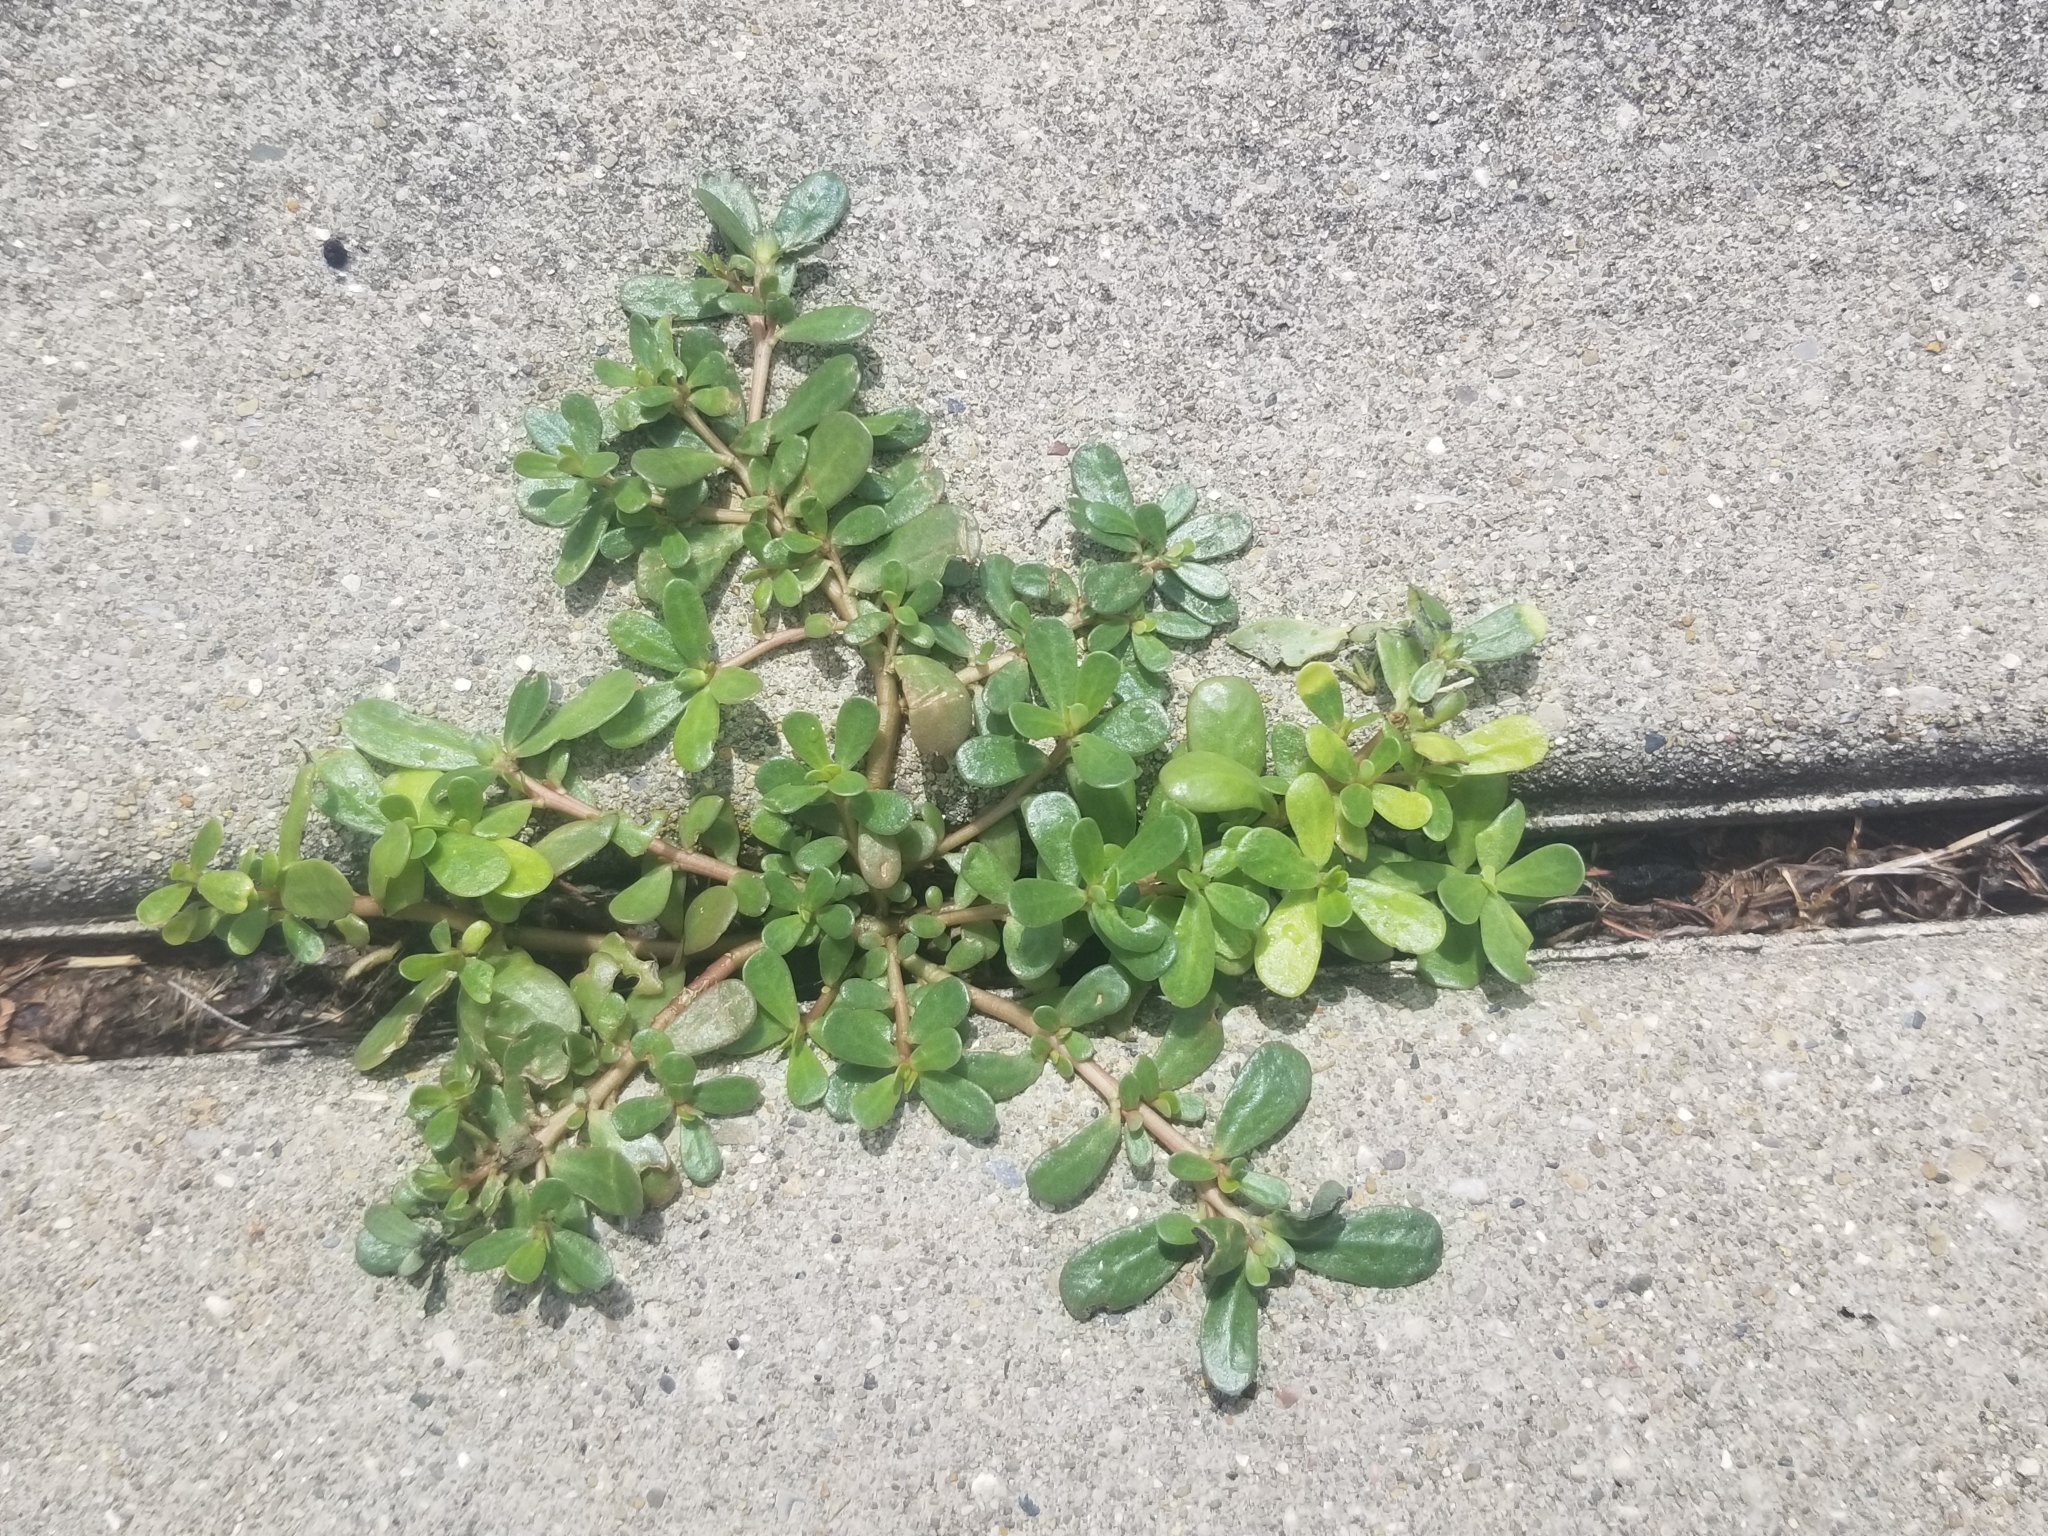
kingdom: Plantae
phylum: Tracheophyta
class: Magnoliopsida
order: Caryophyllales
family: Portulacaceae
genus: Portulaca
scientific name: Portulaca oleracea
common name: Common purslane
